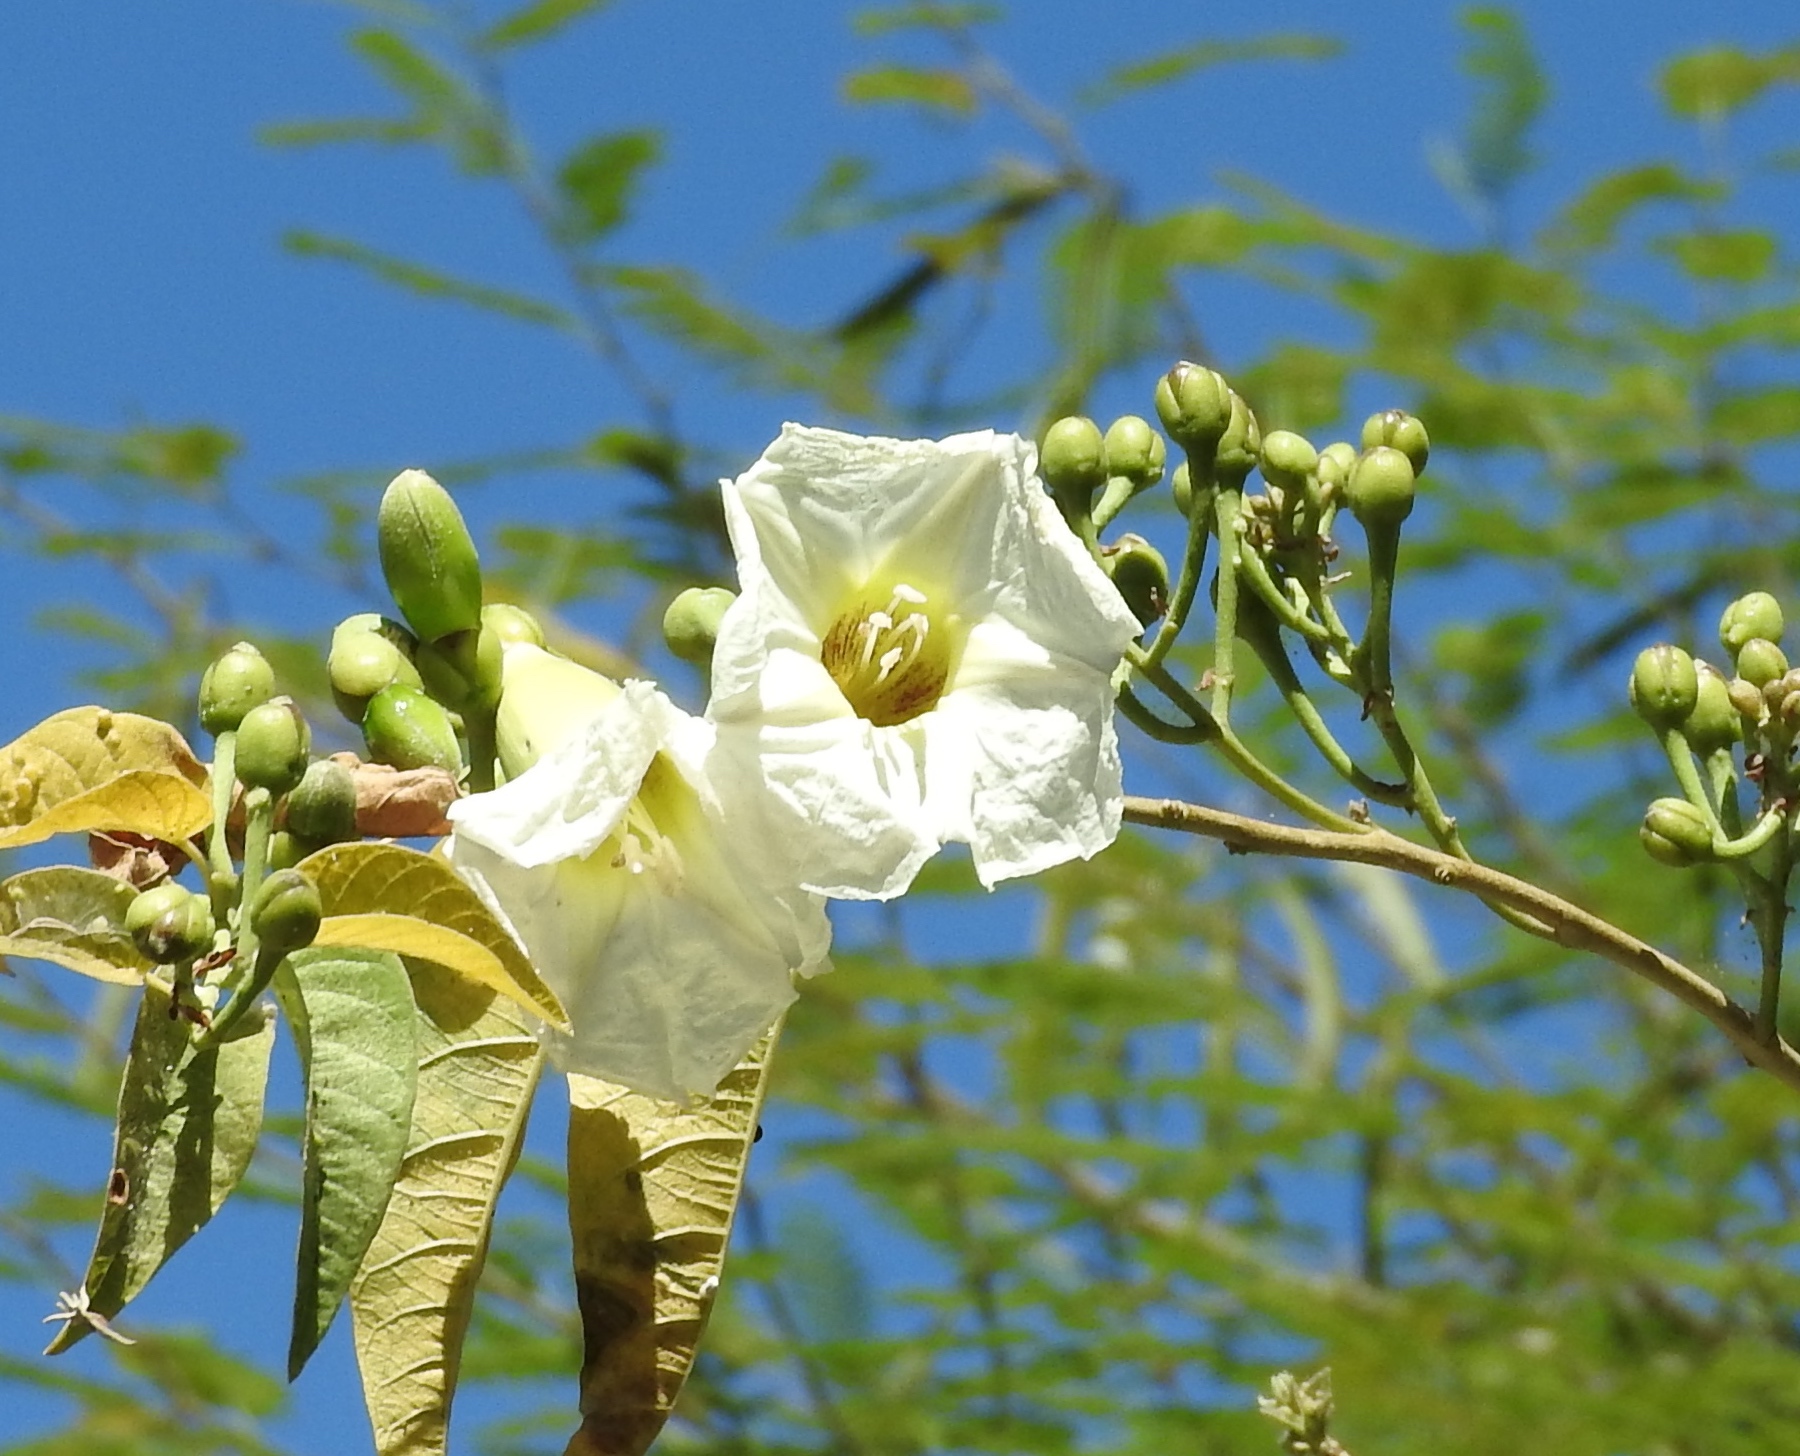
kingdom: Plantae
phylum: Tracheophyta
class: Magnoliopsida
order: Solanales
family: Convolvulaceae
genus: Ipomoea
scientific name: Ipomoea arborescens
